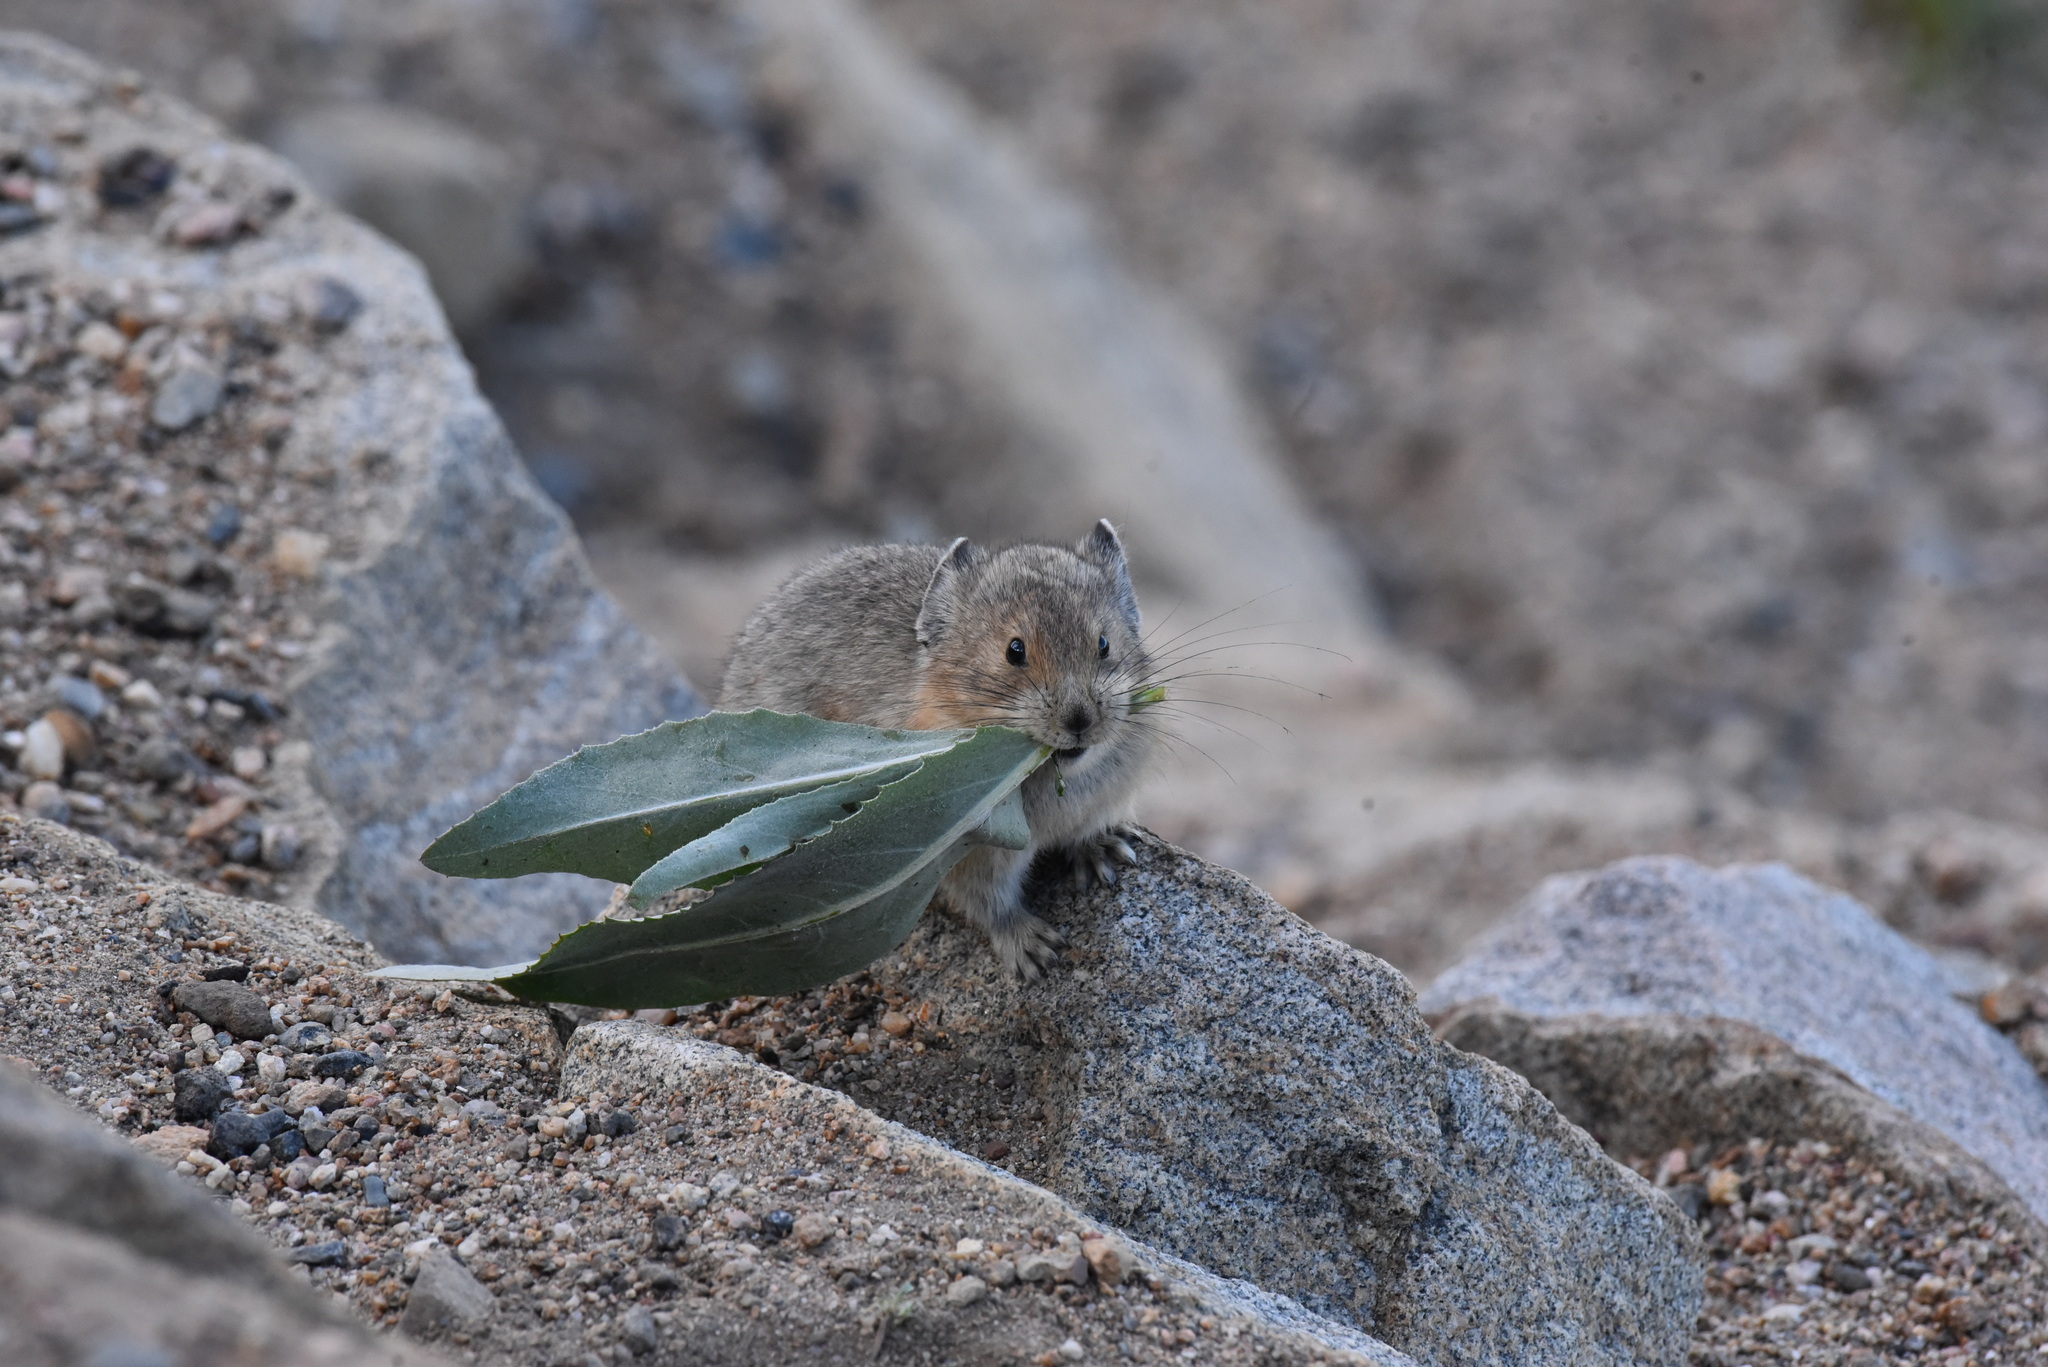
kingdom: Animalia
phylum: Chordata
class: Mammalia
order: Lagomorpha
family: Ochotonidae
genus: Ochotona
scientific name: Ochotona princeps
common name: American pika
